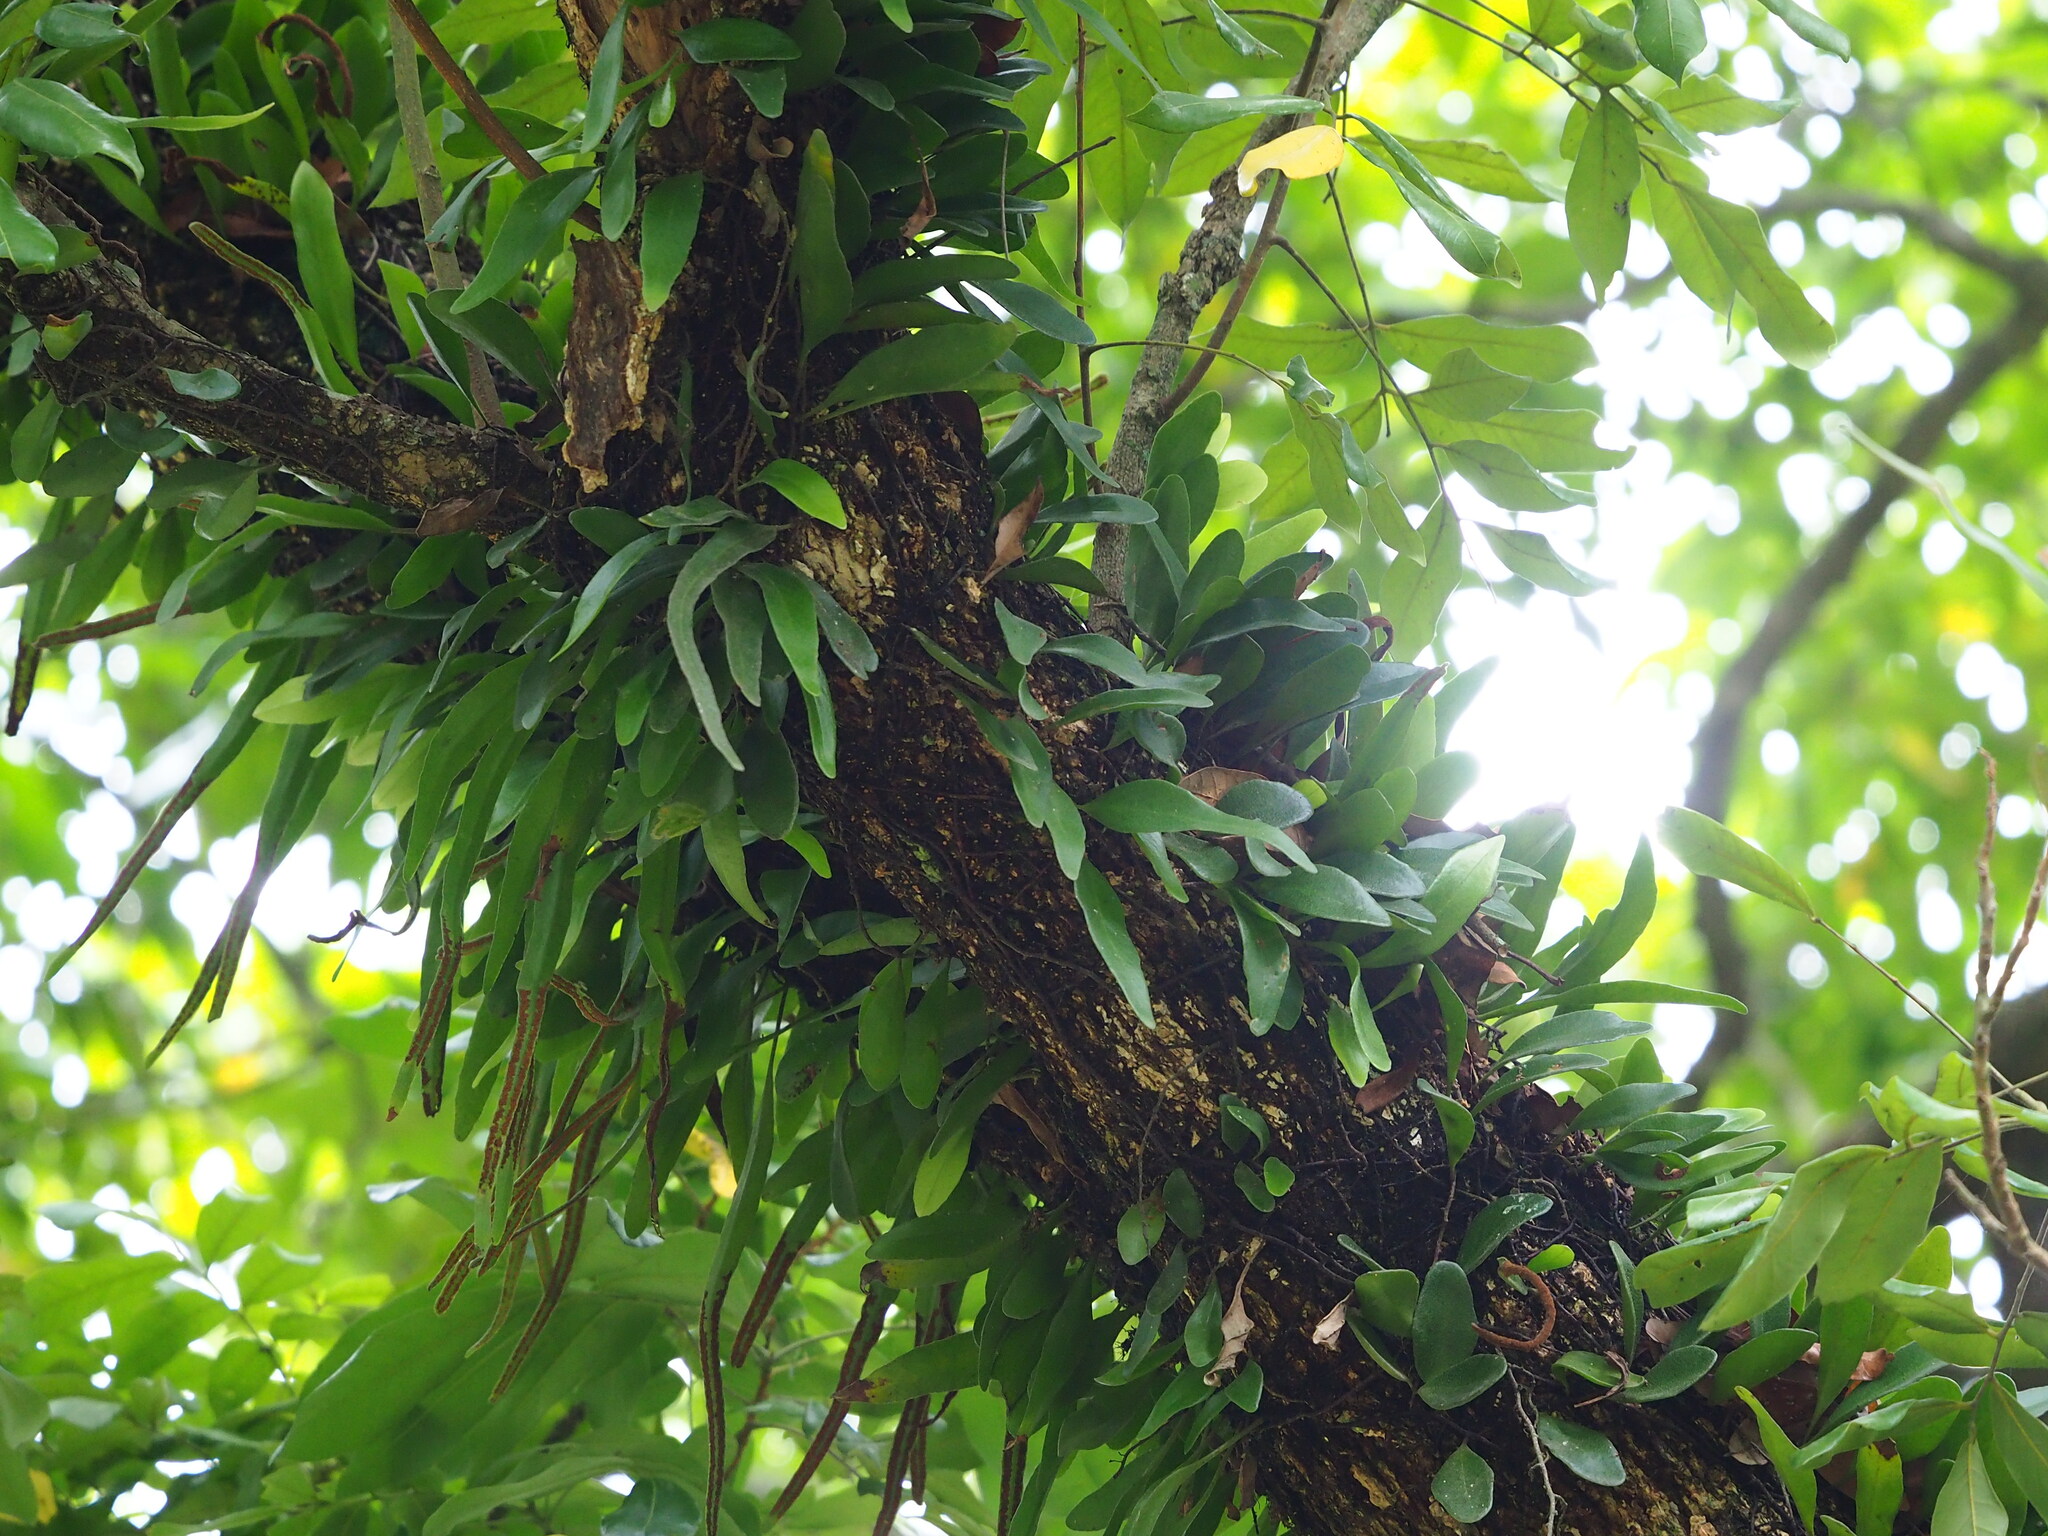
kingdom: Plantae
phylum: Tracheophyta
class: Polypodiopsida
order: Polypodiales
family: Polypodiaceae
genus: Pyrrosia
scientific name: Pyrrosia lanceolata
